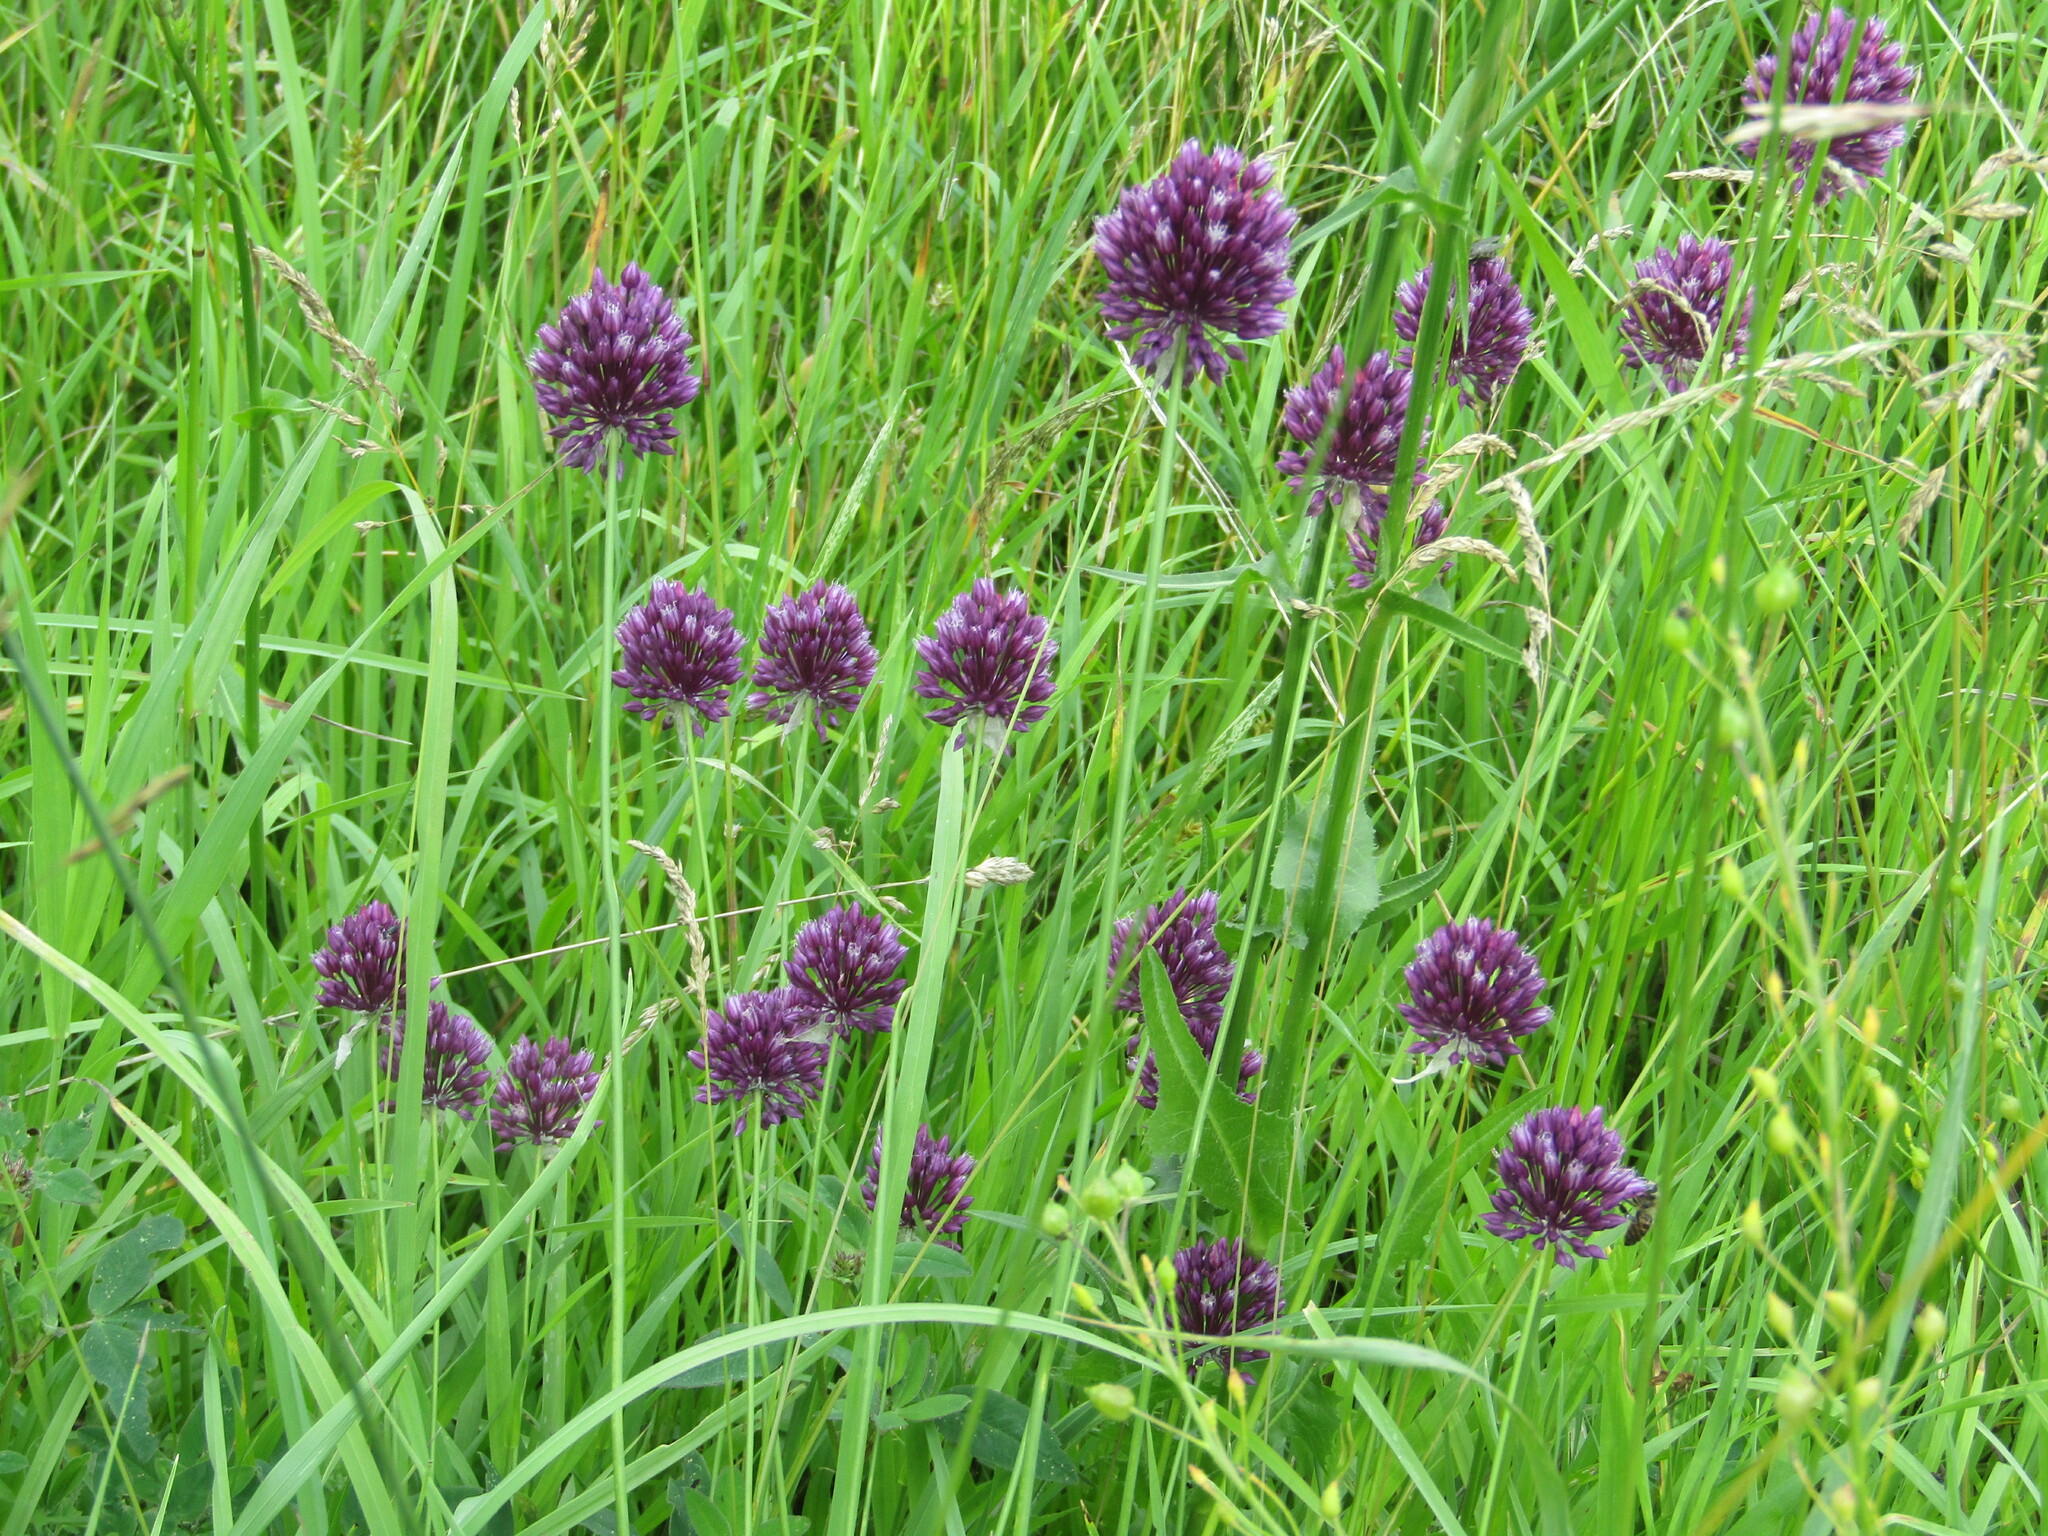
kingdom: Plantae
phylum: Tracheophyta
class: Liliopsida
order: Asparagales
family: Amaryllidaceae
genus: Allium
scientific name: Allium rotundum
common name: Sand leek
